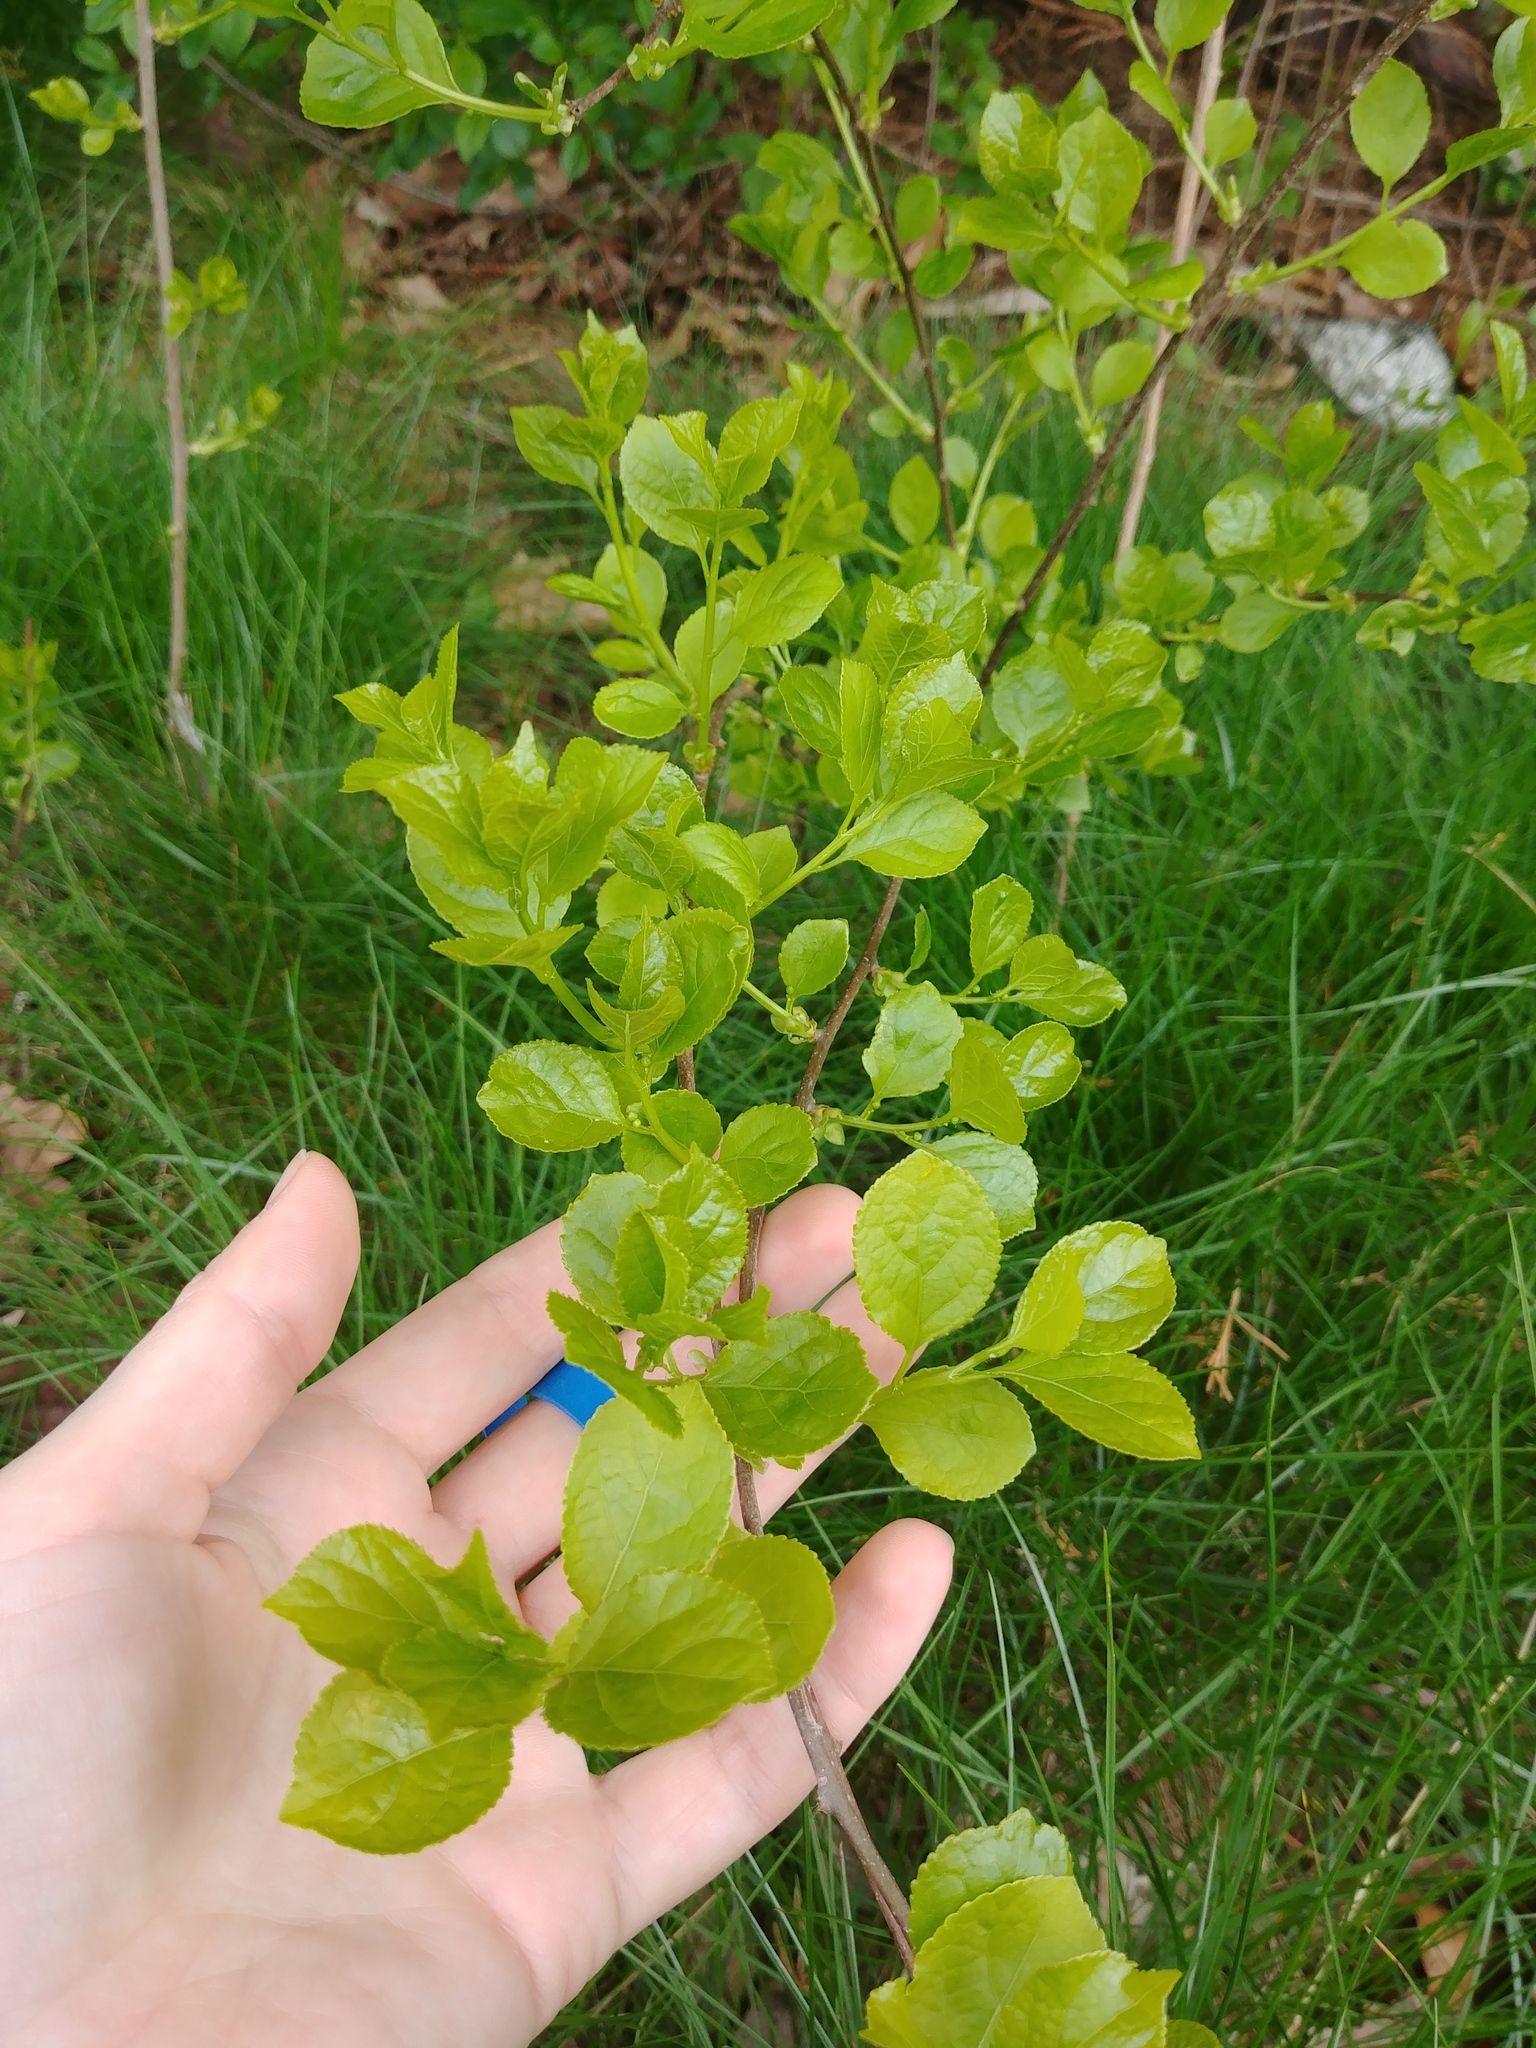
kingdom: Plantae
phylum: Tracheophyta
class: Magnoliopsida
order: Celastrales
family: Celastraceae
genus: Celastrus
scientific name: Celastrus orbiculatus
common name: Oriental bittersweet
